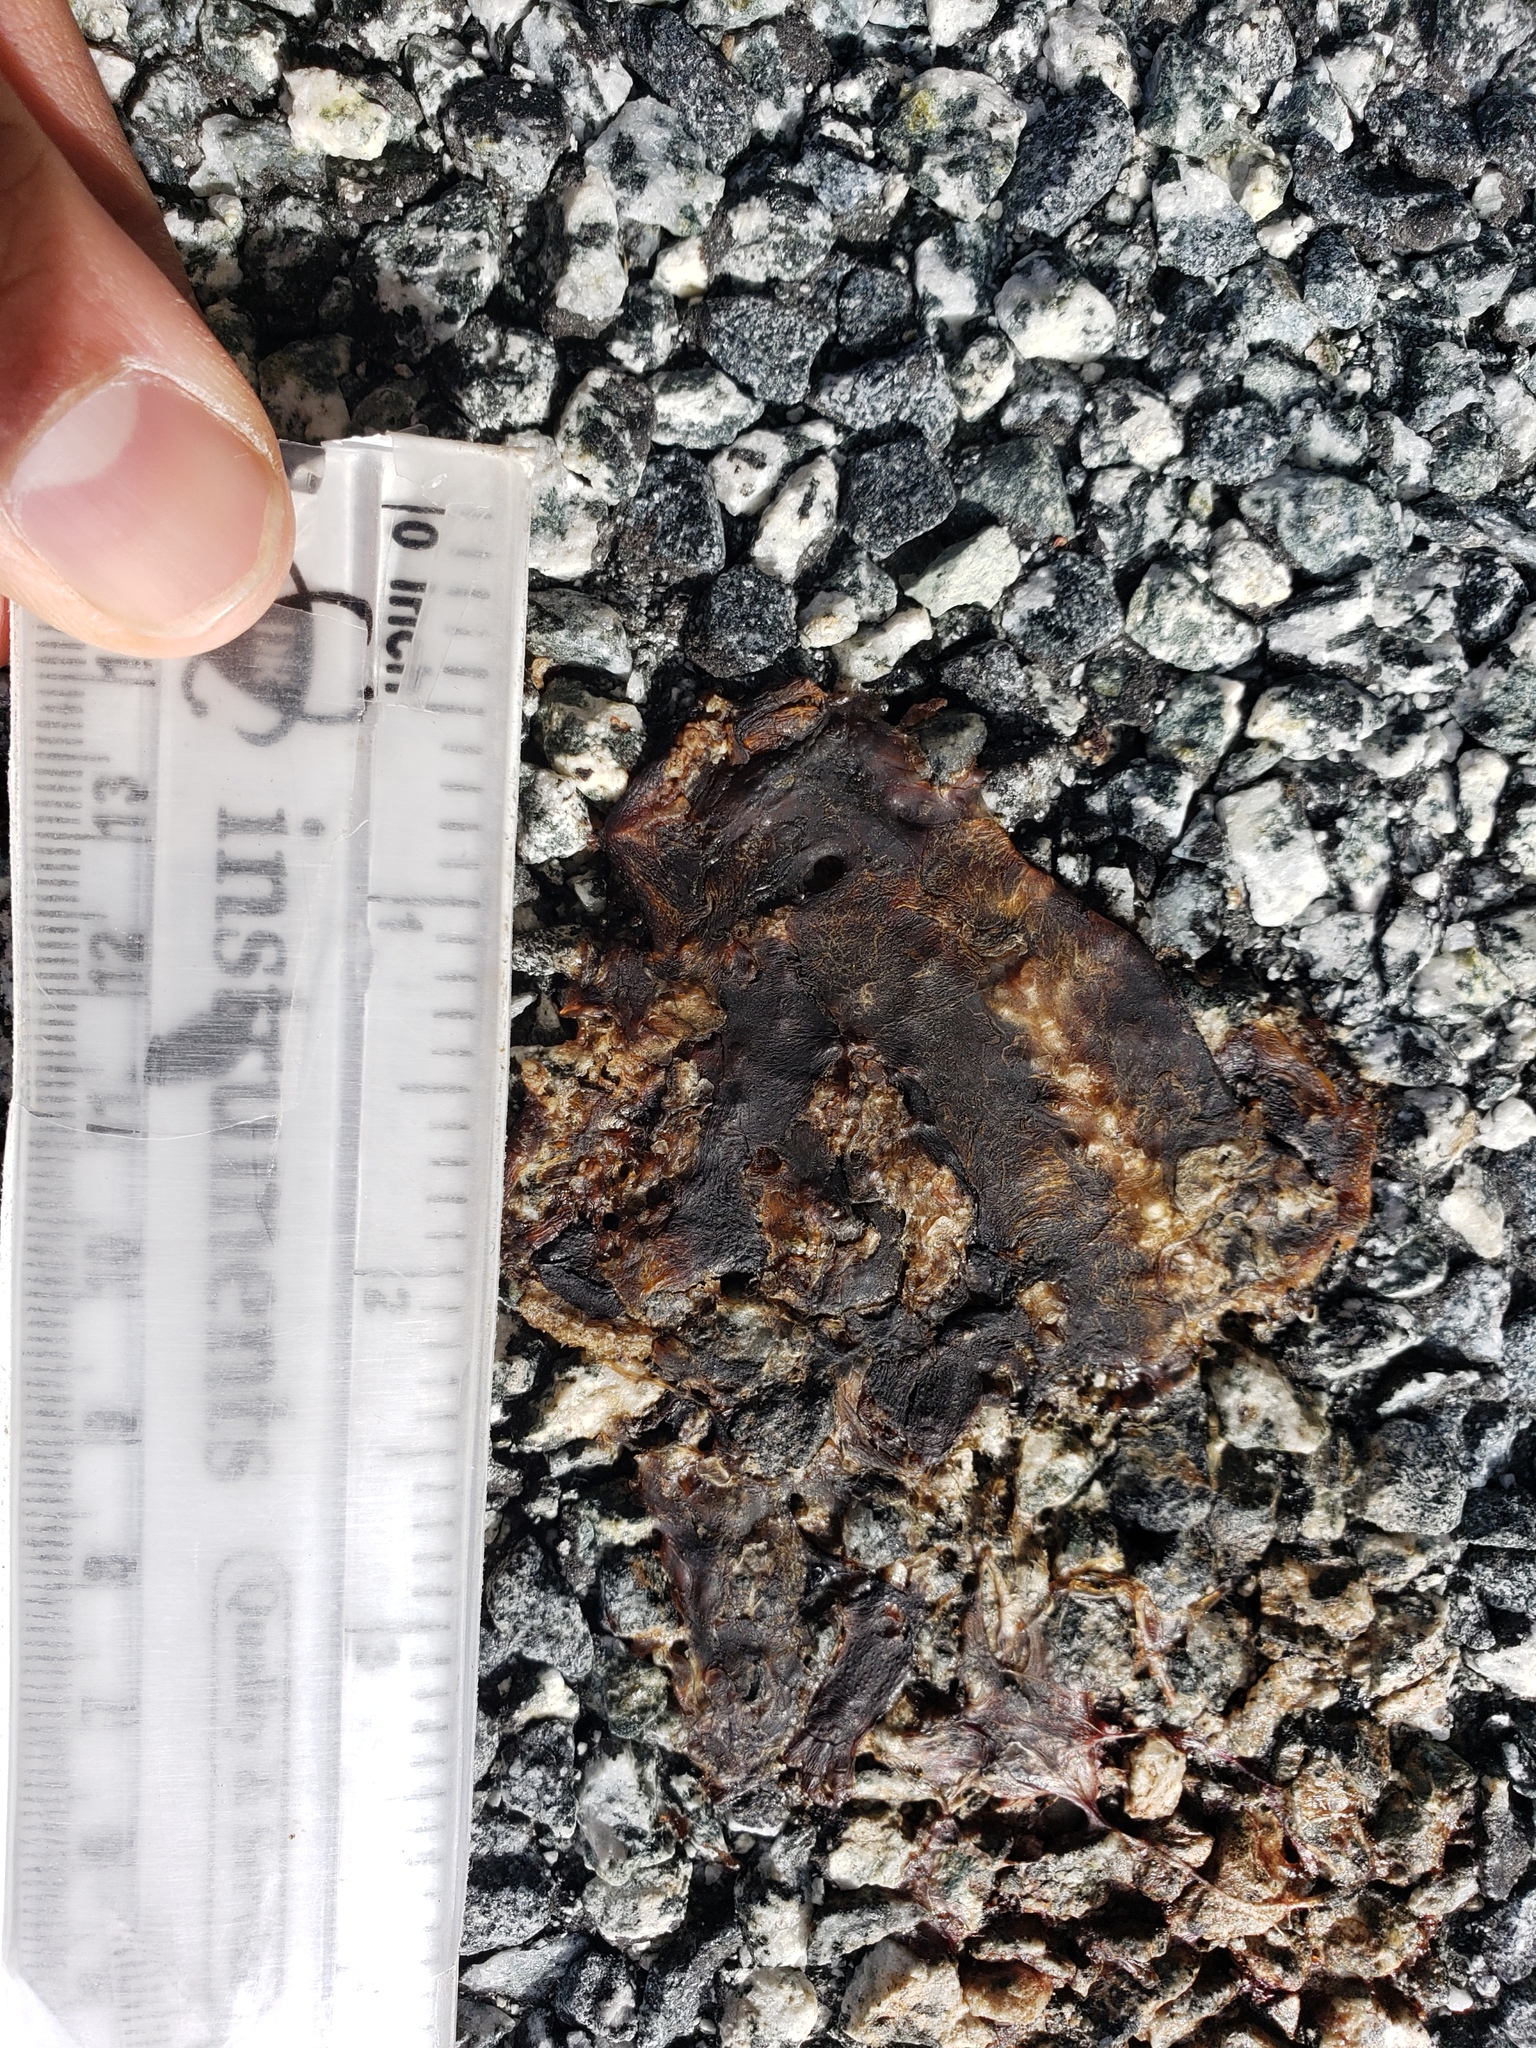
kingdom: Animalia
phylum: Chordata
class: Amphibia
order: Caudata
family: Salamandridae
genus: Taricha
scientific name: Taricha
